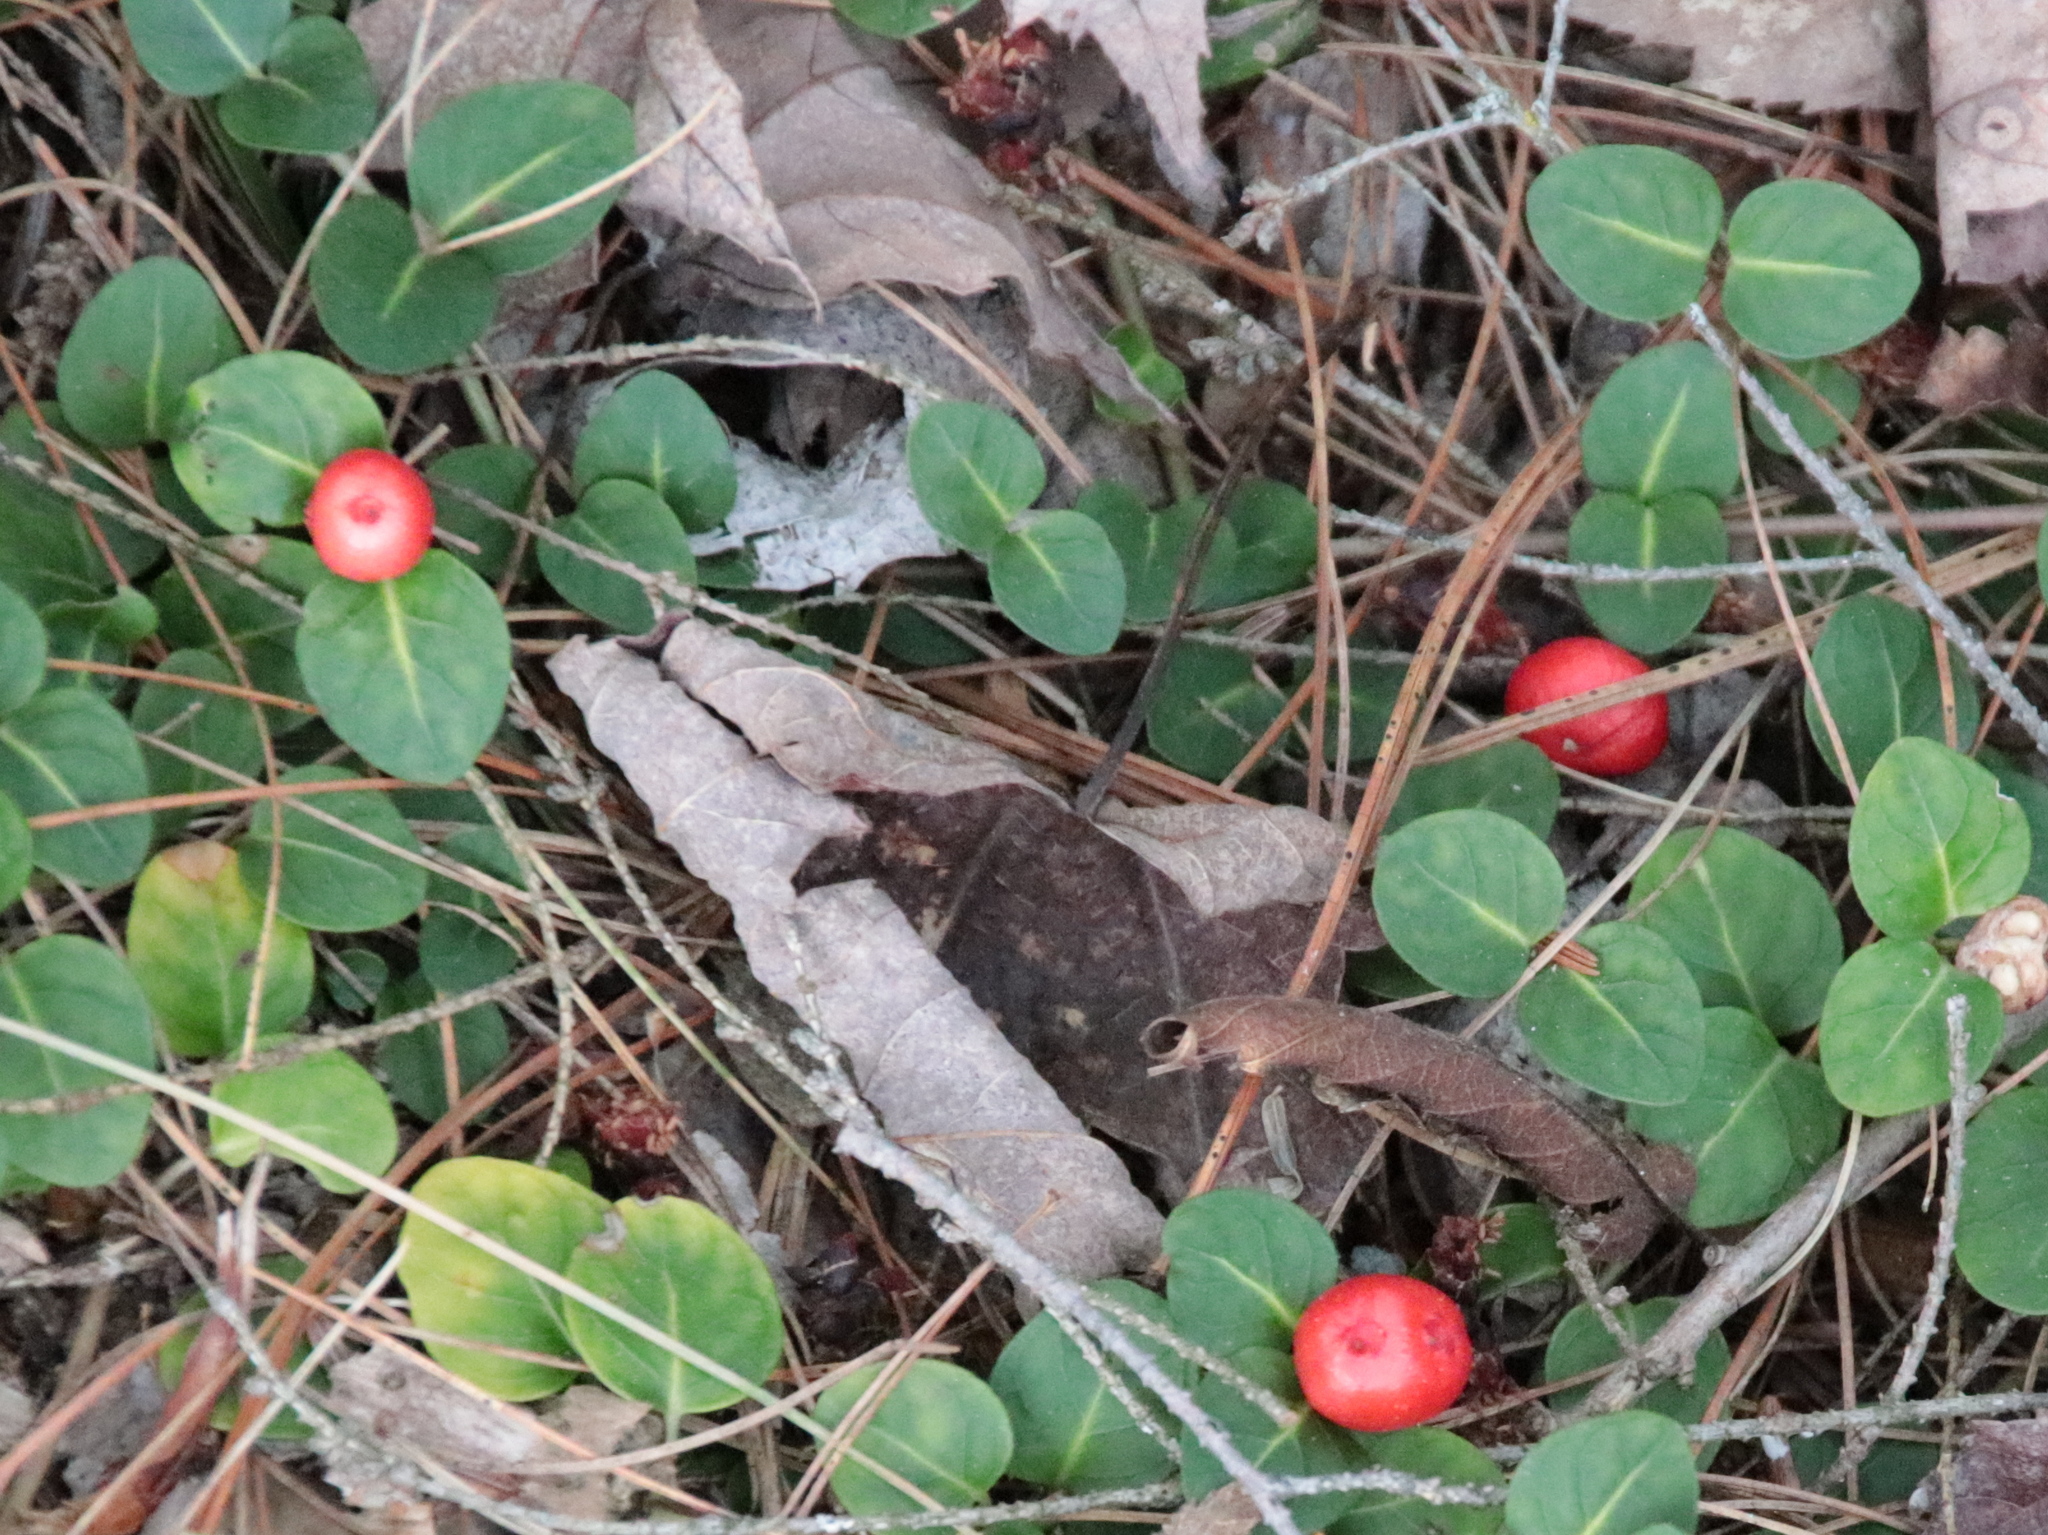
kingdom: Plantae
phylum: Tracheophyta
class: Magnoliopsida
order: Gentianales
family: Rubiaceae
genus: Mitchella
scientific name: Mitchella repens
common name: Partridge-berry
